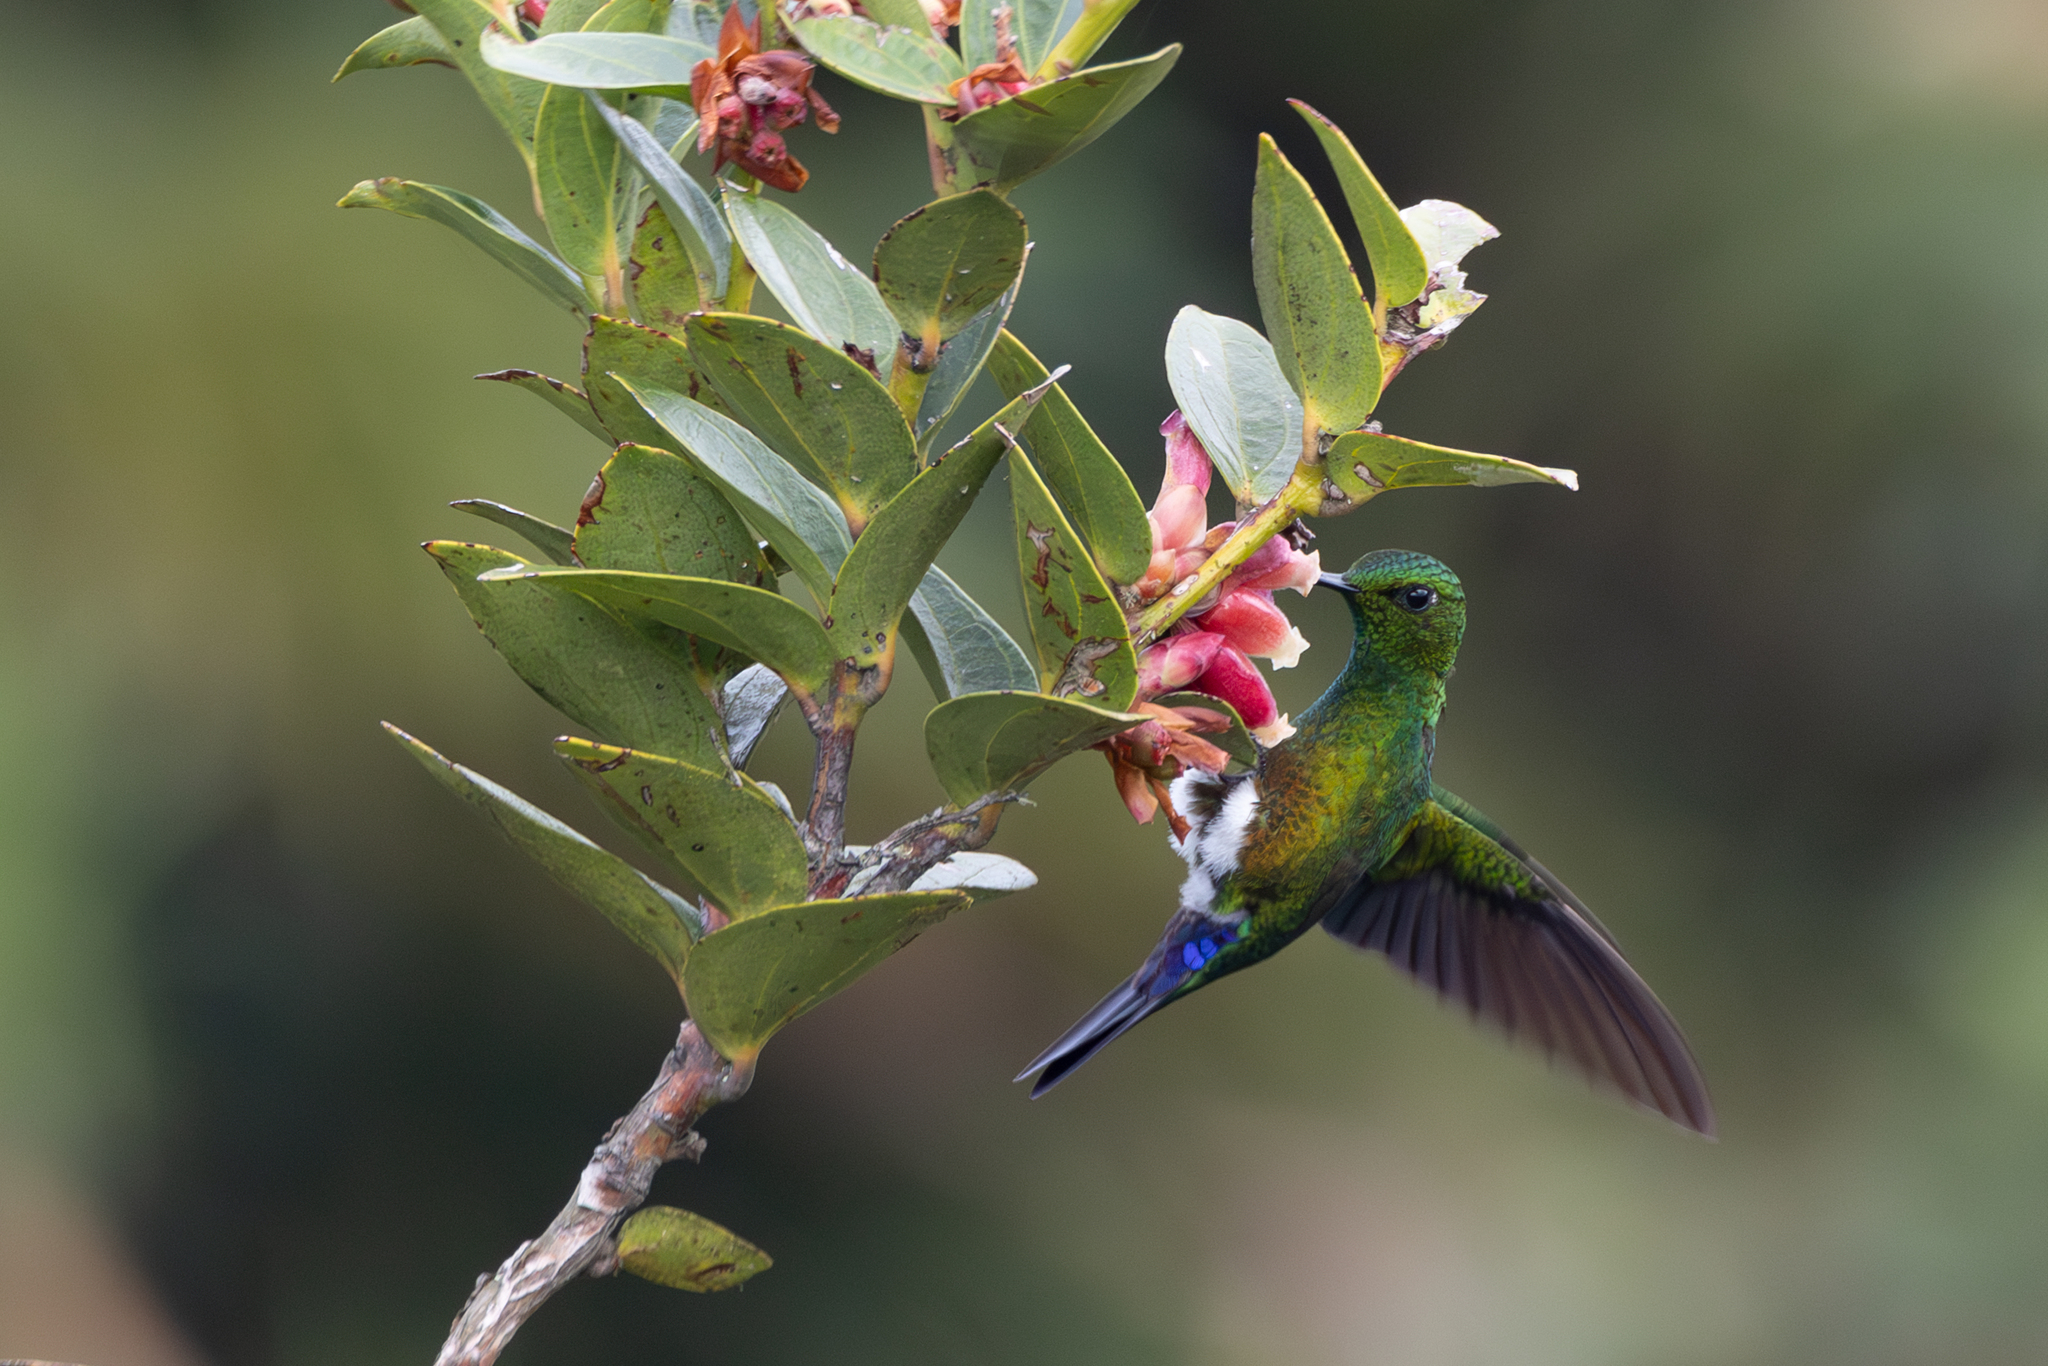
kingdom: Animalia
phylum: Chordata
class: Aves
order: Apodiformes
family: Trochilidae
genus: Eriocnemis
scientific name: Eriocnemis cupreoventris
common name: Coppery-bellied puffleg
